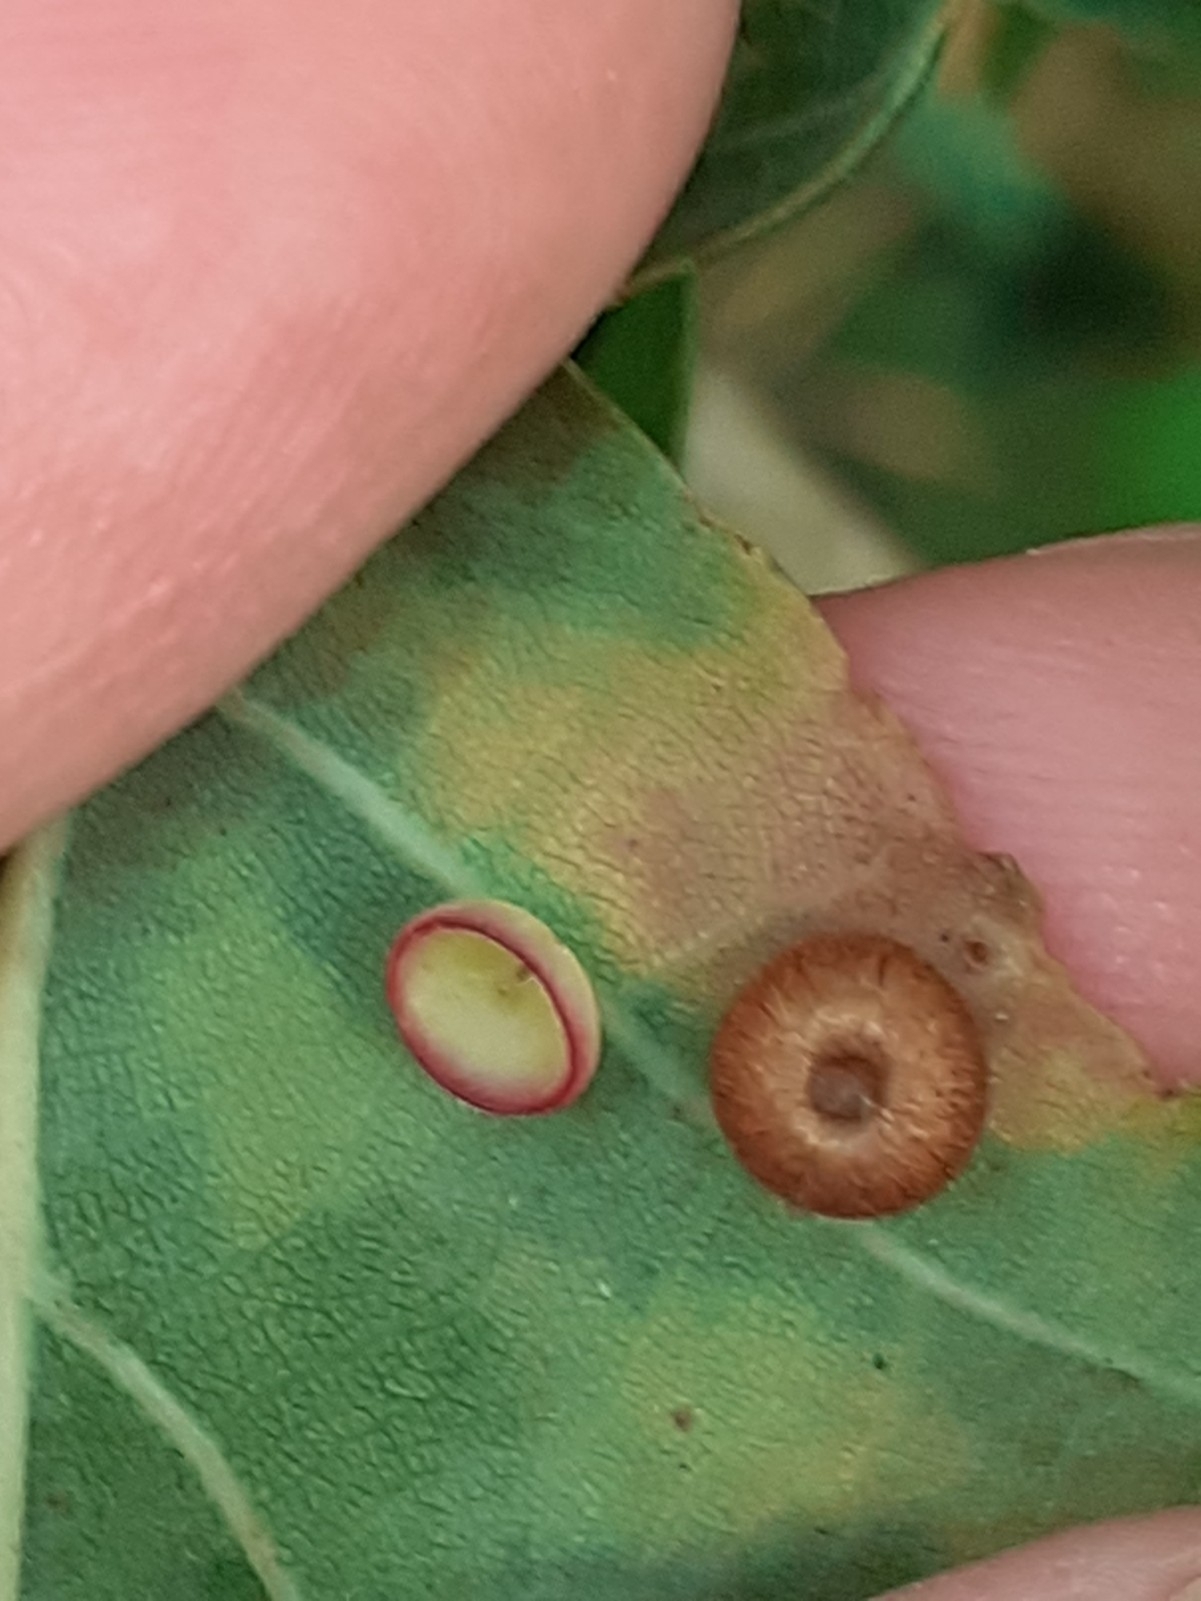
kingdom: Animalia
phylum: Arthropoda
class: Insecta
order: Hymenoptera
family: Cynipidae
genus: Neuroterus
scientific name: Neuroterus albipes
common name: Smooth spangle gall
